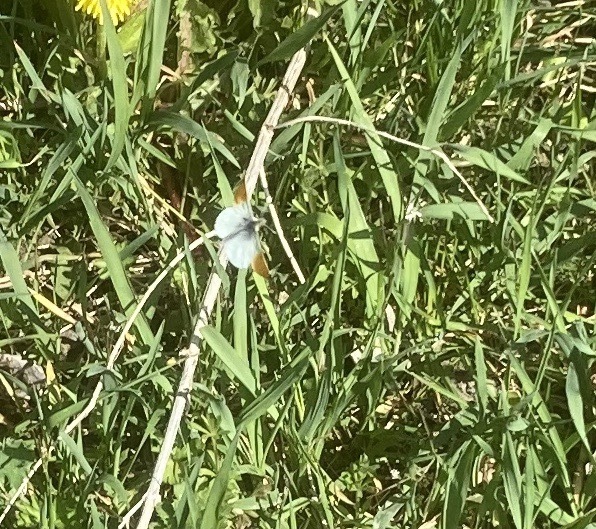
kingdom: Animalia
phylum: Arthropoda
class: Insecta
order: Lepidoptera
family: Pieridae
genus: Anthocharis
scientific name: Anthocharis cardamines
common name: Orange-tip
